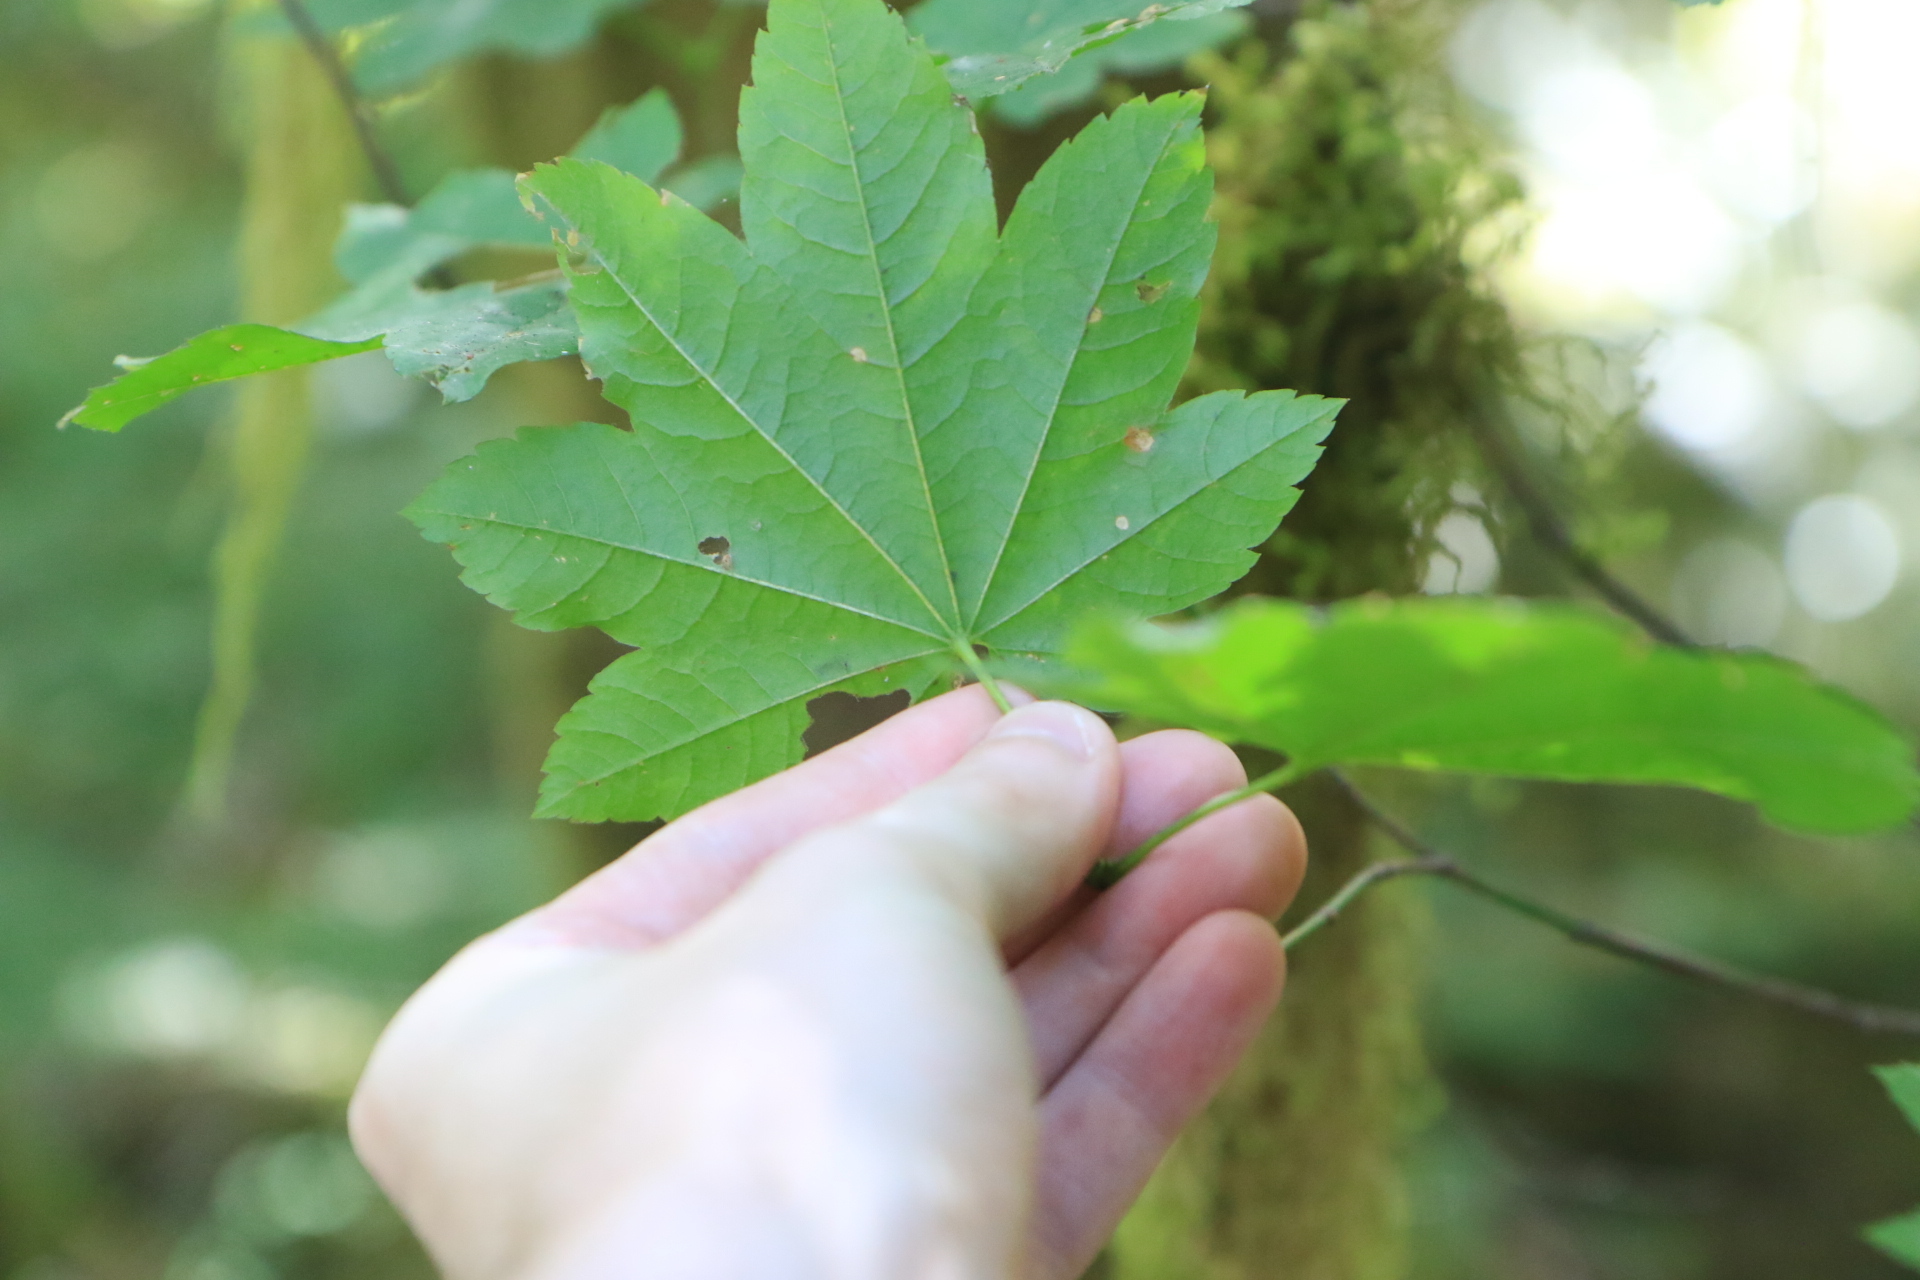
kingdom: Plantae
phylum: Tracheophyta
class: Magnoliopsida
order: Sapindales
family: Sapindaceae
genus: Acer
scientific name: Acer circinatum
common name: Vine maple
